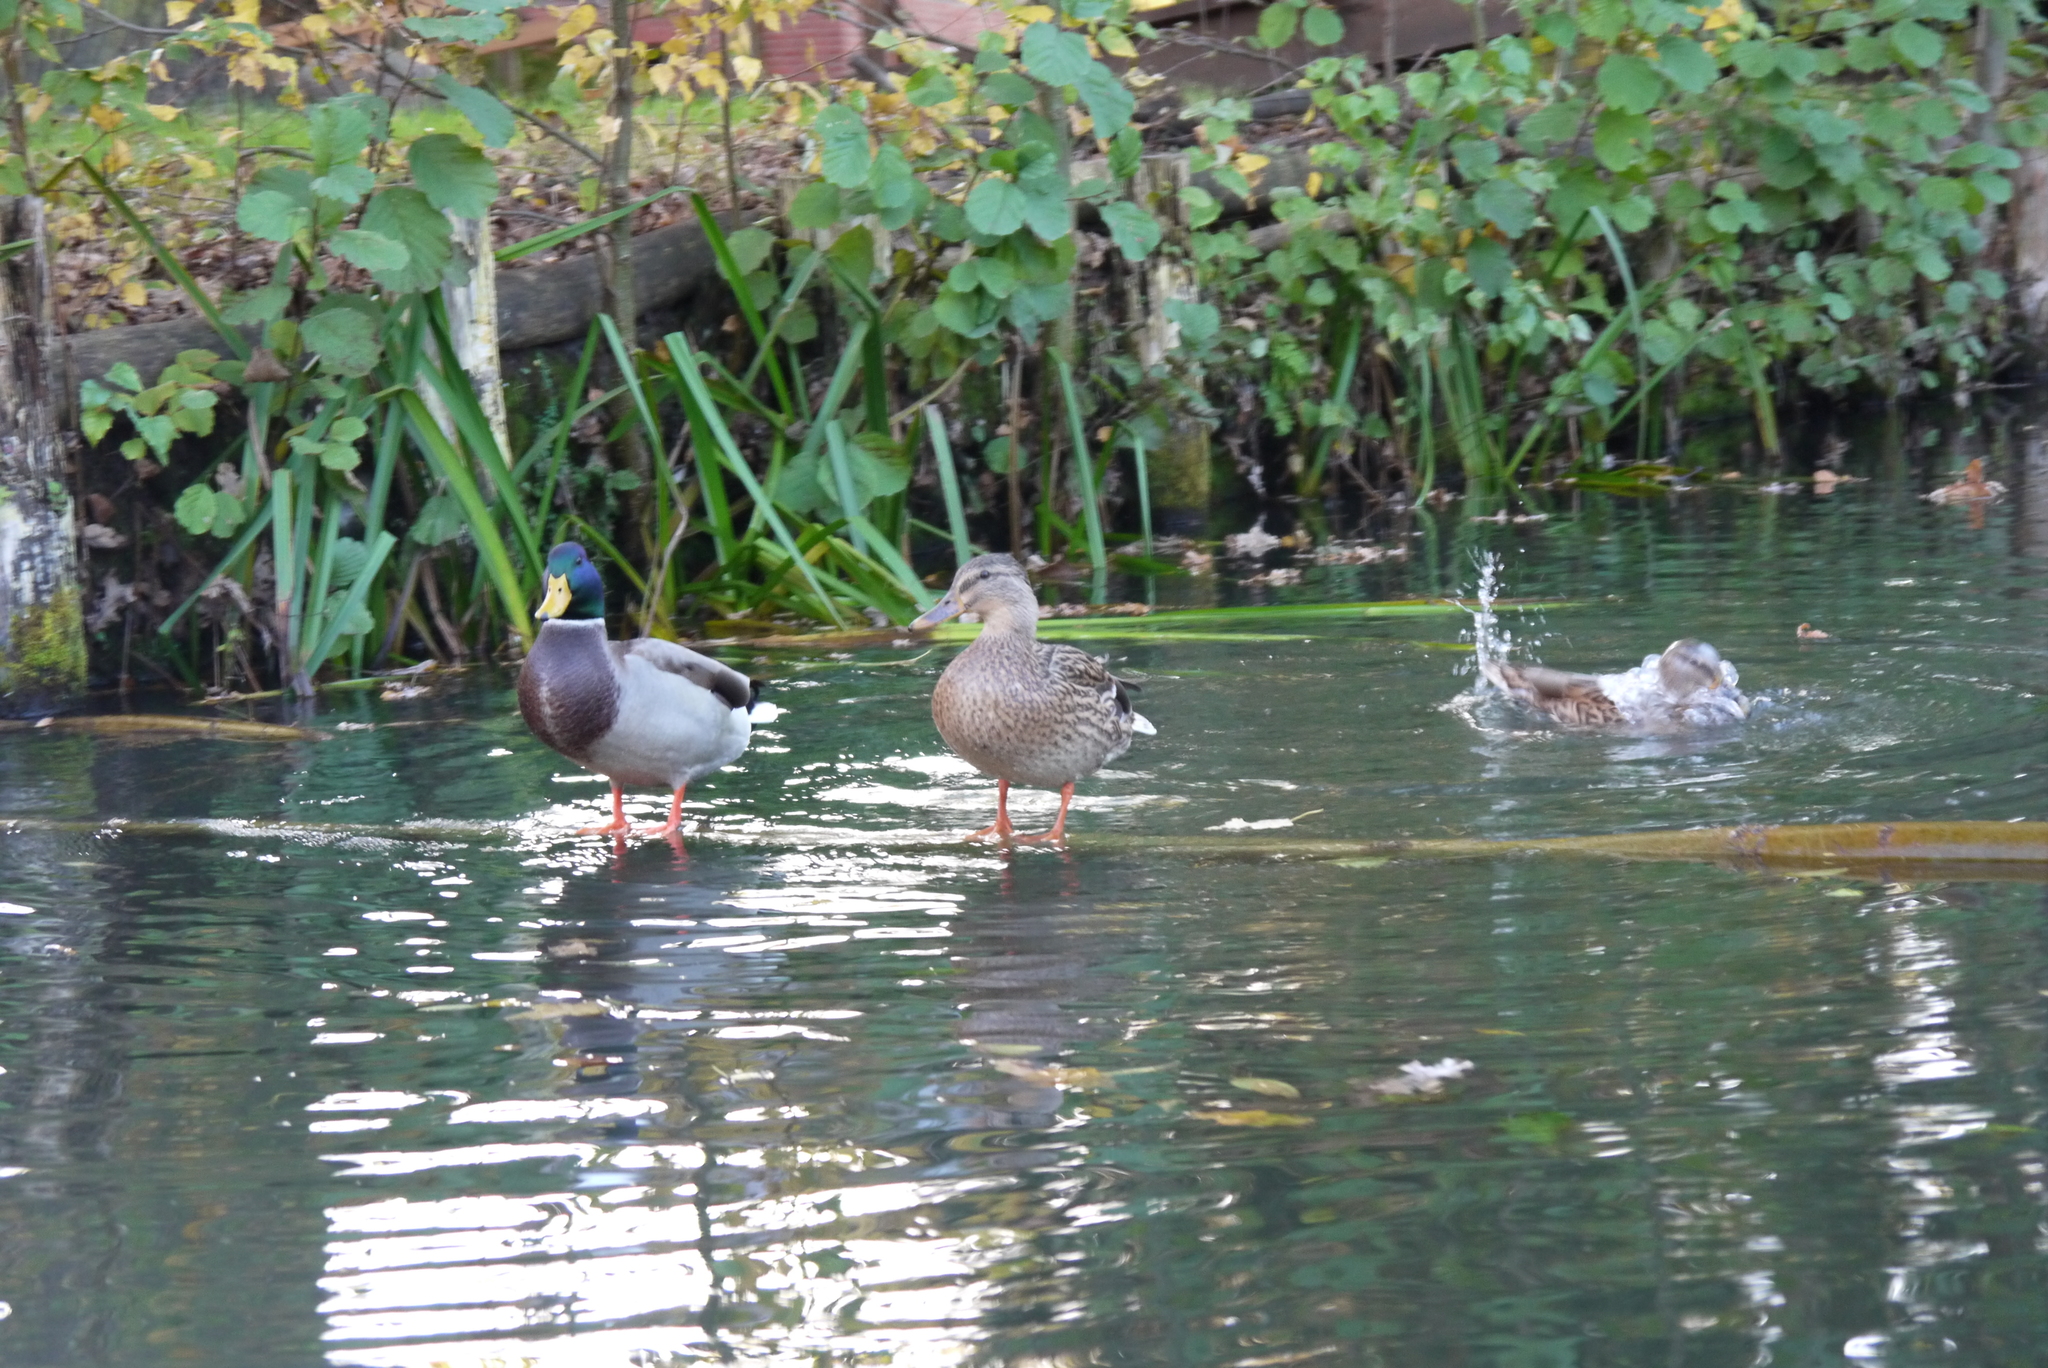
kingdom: Animalia
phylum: Chordata
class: Aves
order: Anseriformes
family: Anatidae
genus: Anas
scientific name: Anas platyrhynchos
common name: Mallard
